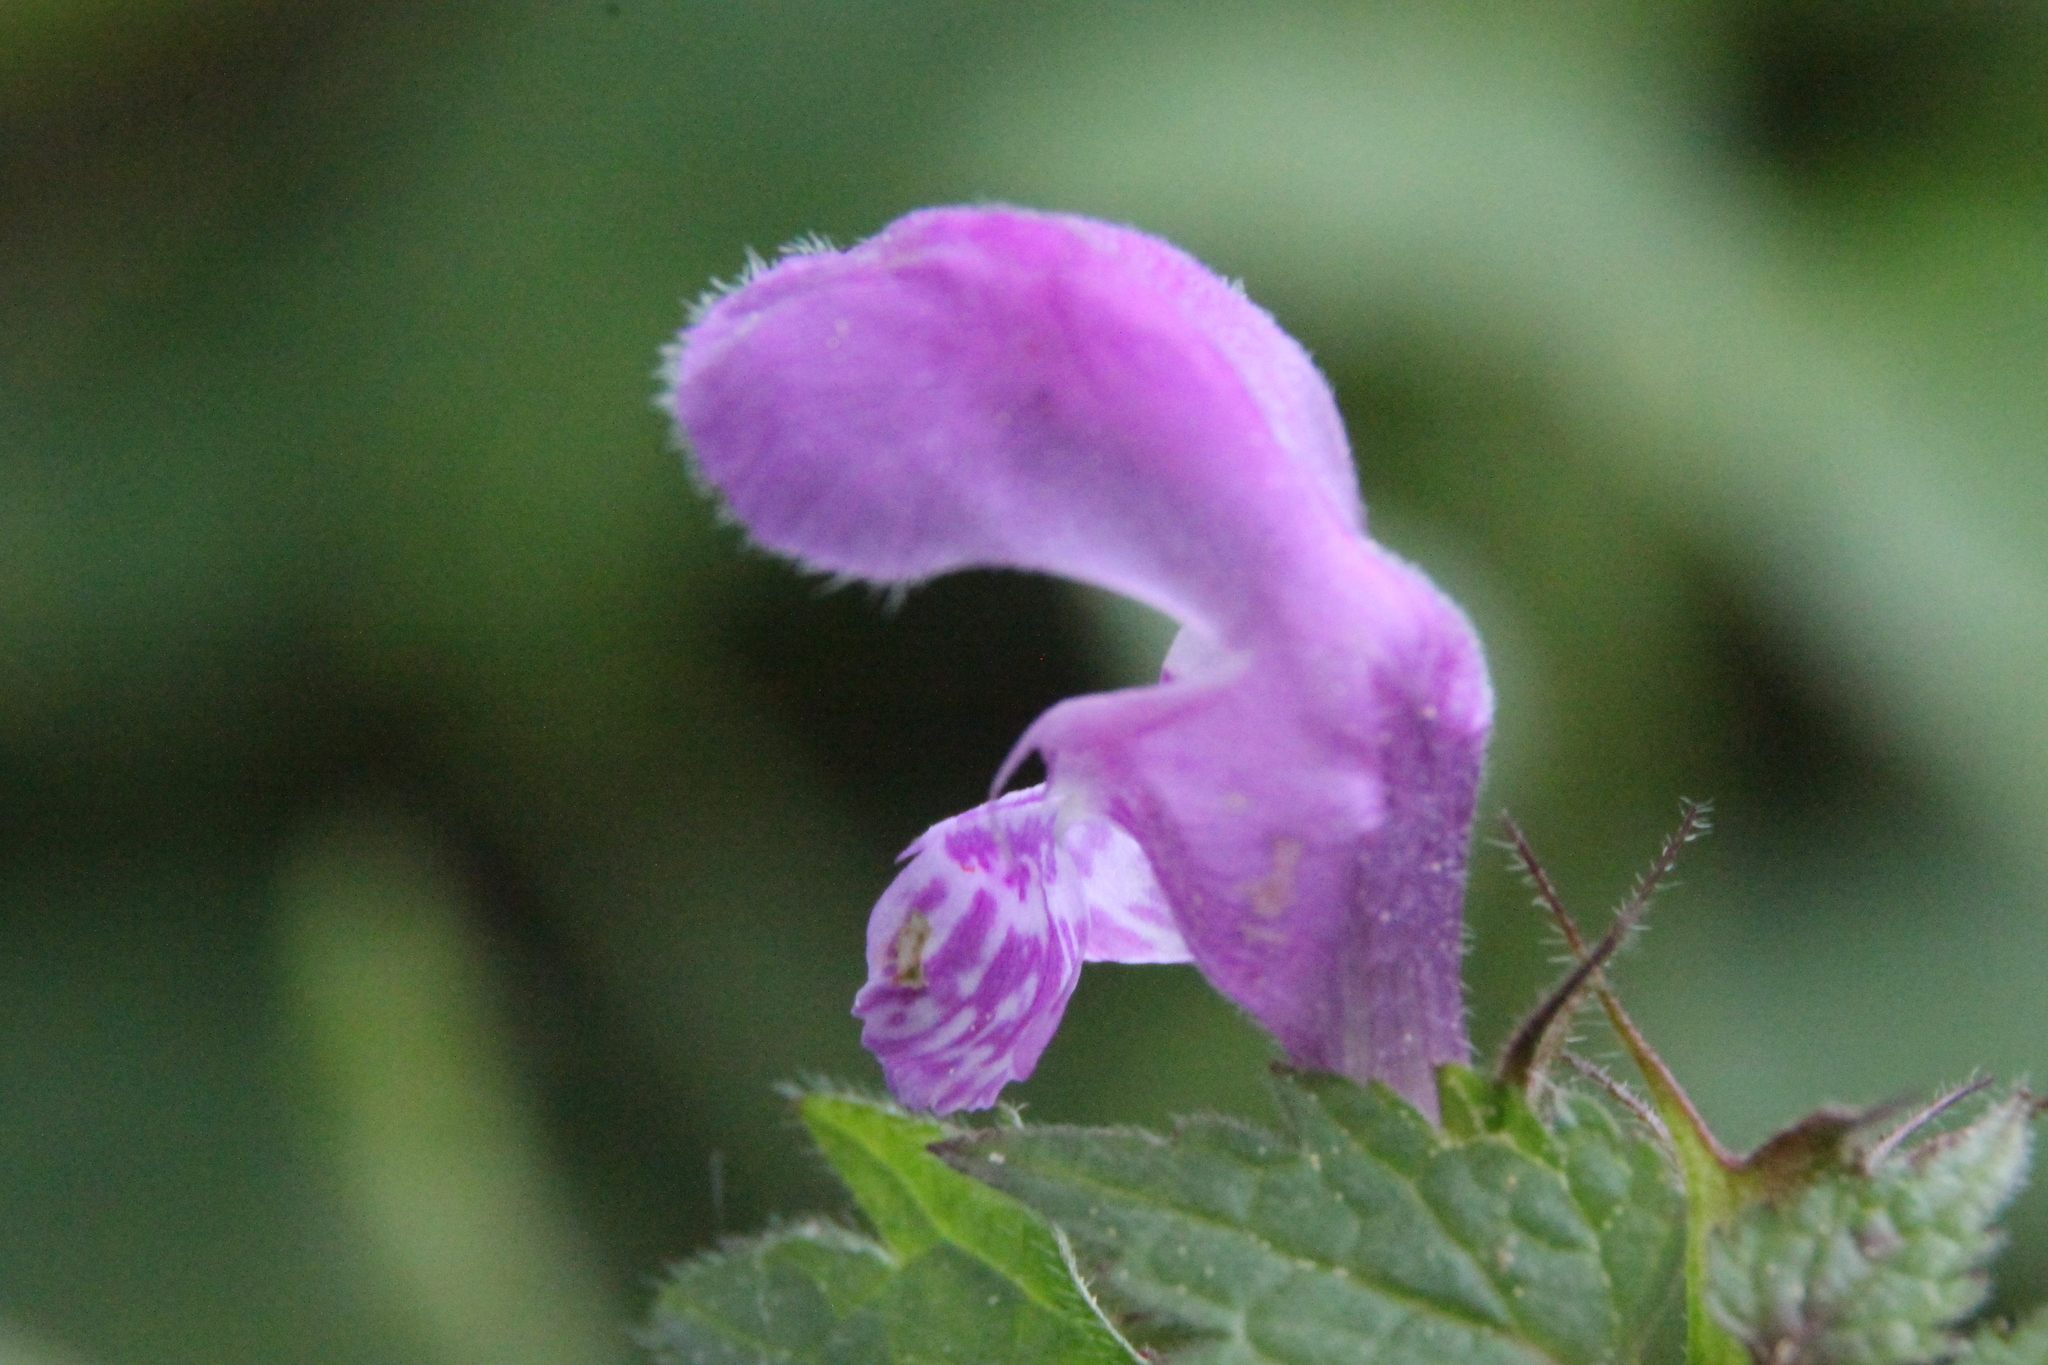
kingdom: Plantae
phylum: Tracheophyta
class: Magnoliopsida
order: Lamiales
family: Lamiaceae
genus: Lamium
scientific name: Lamium maculatum
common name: Spotted dead-nettle
